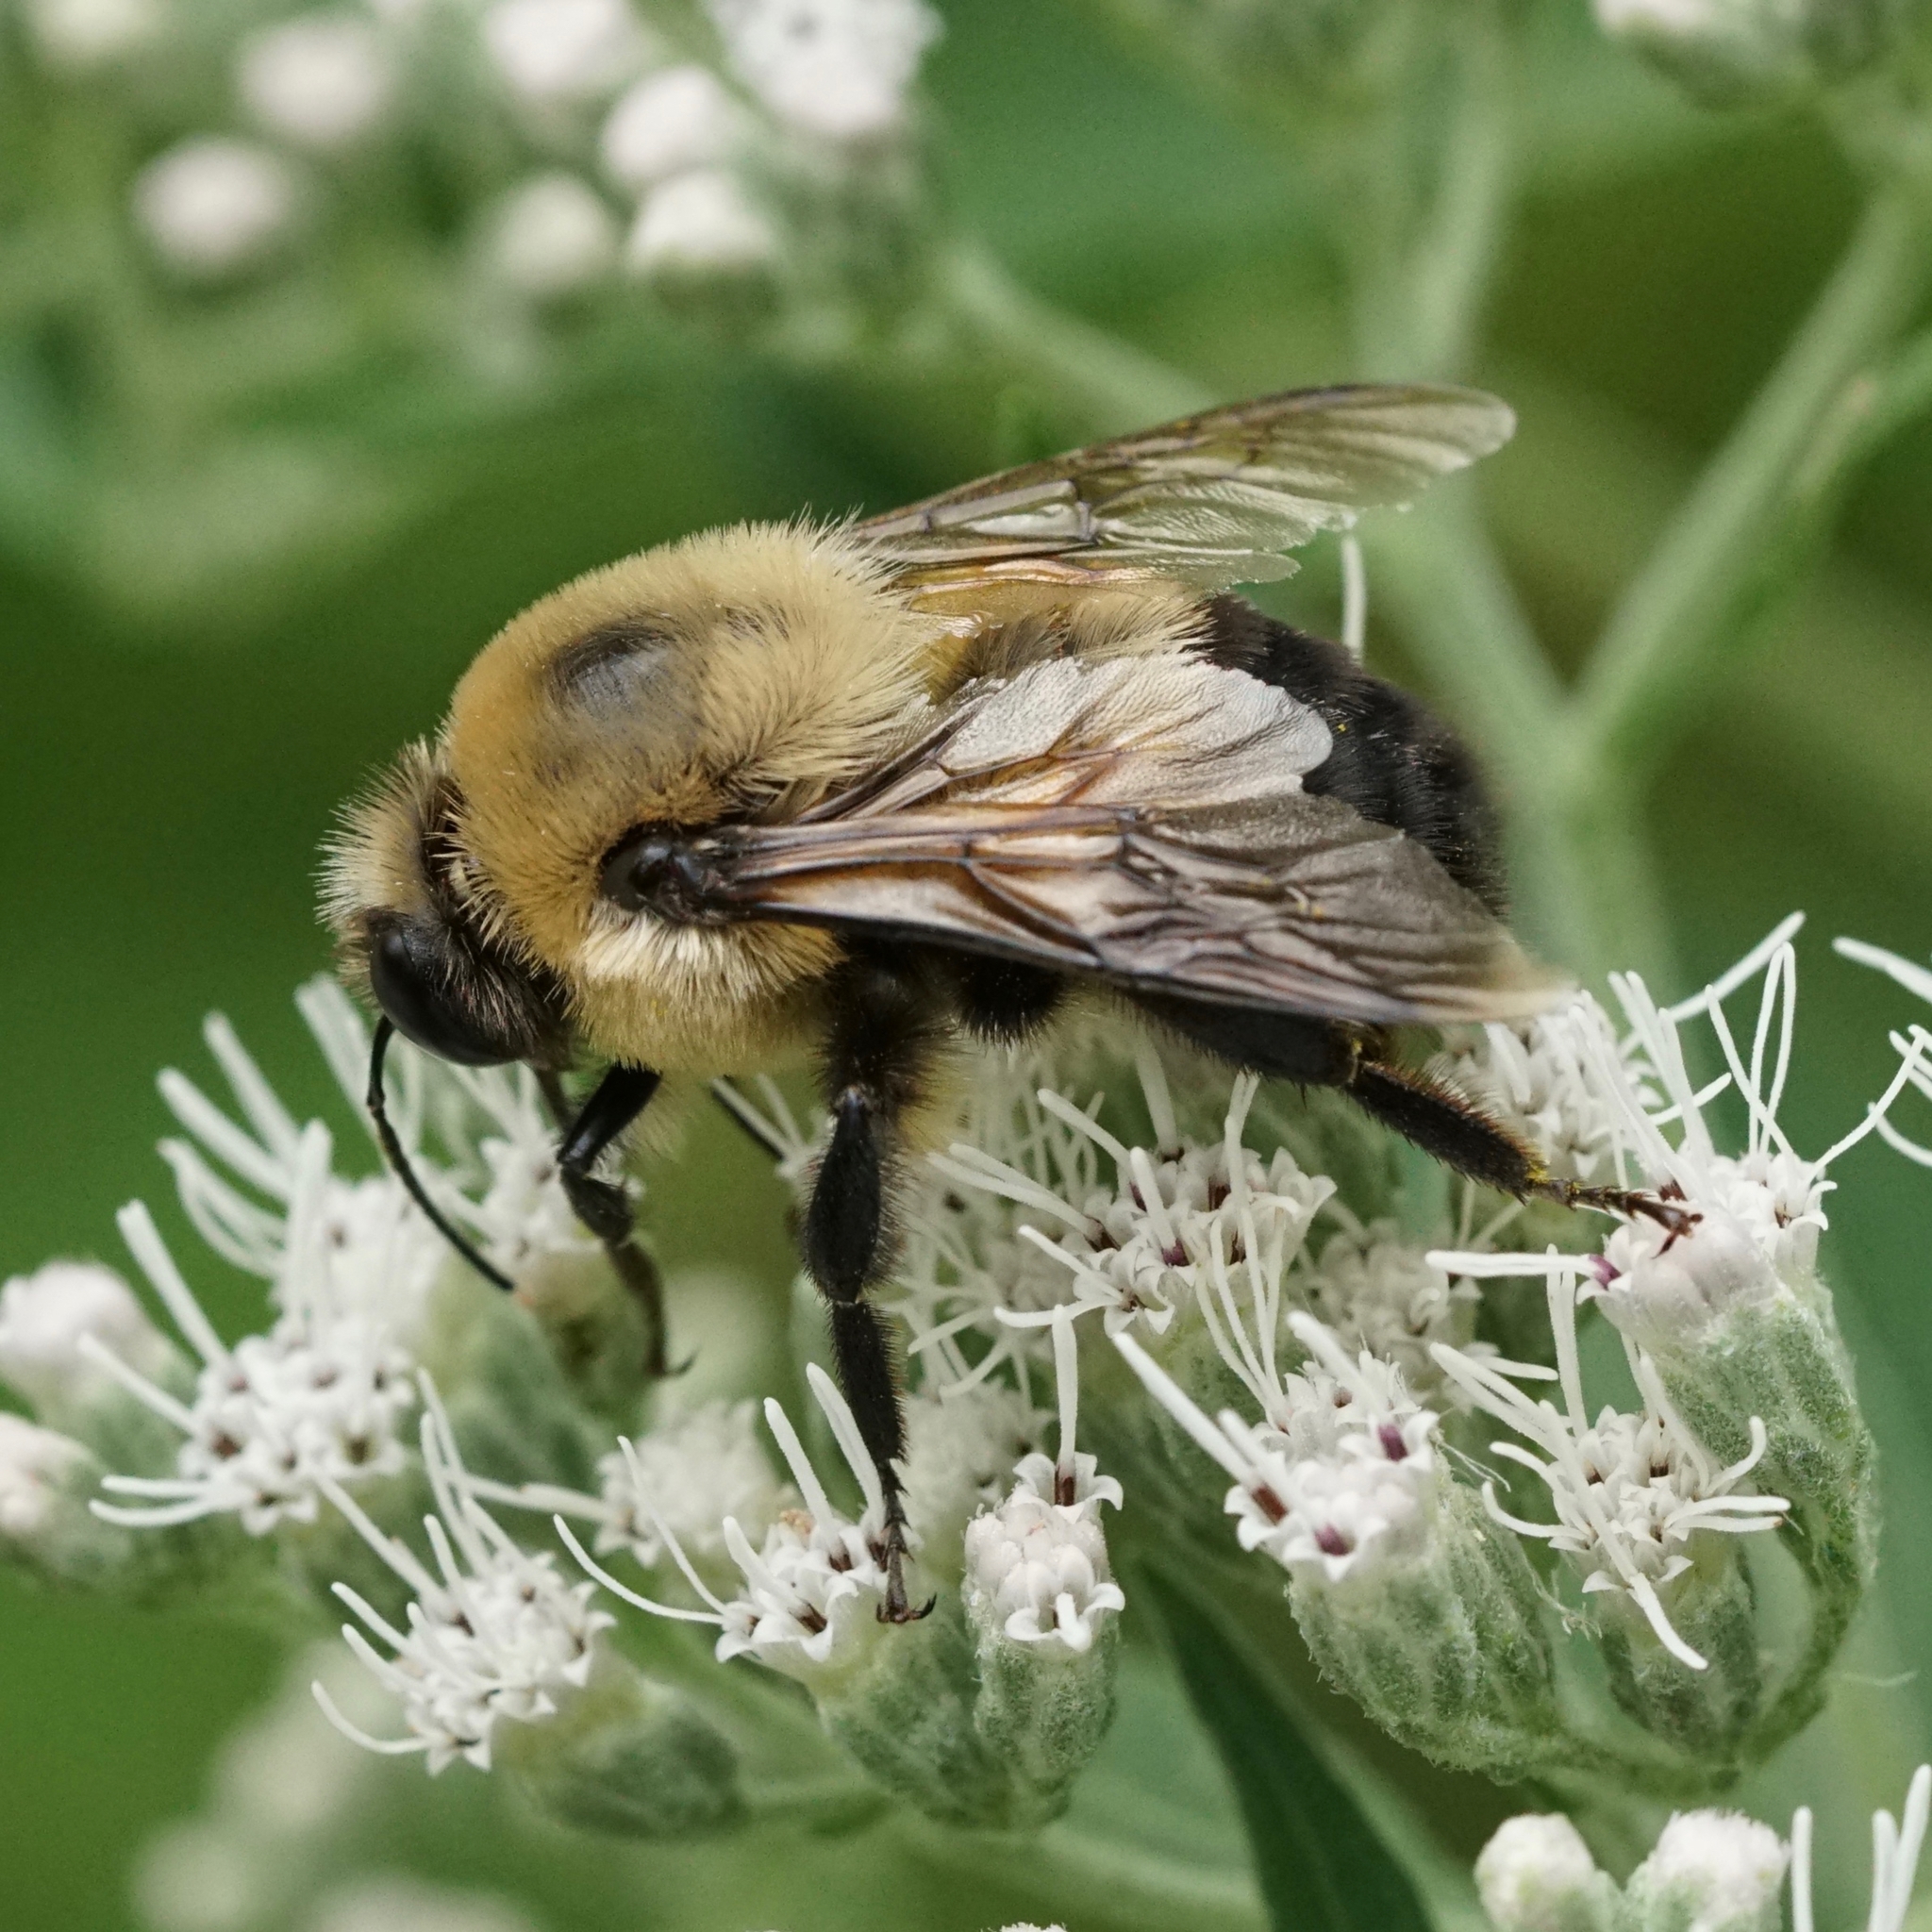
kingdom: Animalia
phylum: Arthropoda
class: Insecta
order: Hymenoptera
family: Apidae
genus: Bombus
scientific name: Bombus griseocollis
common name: Brown-belted bumble bee
